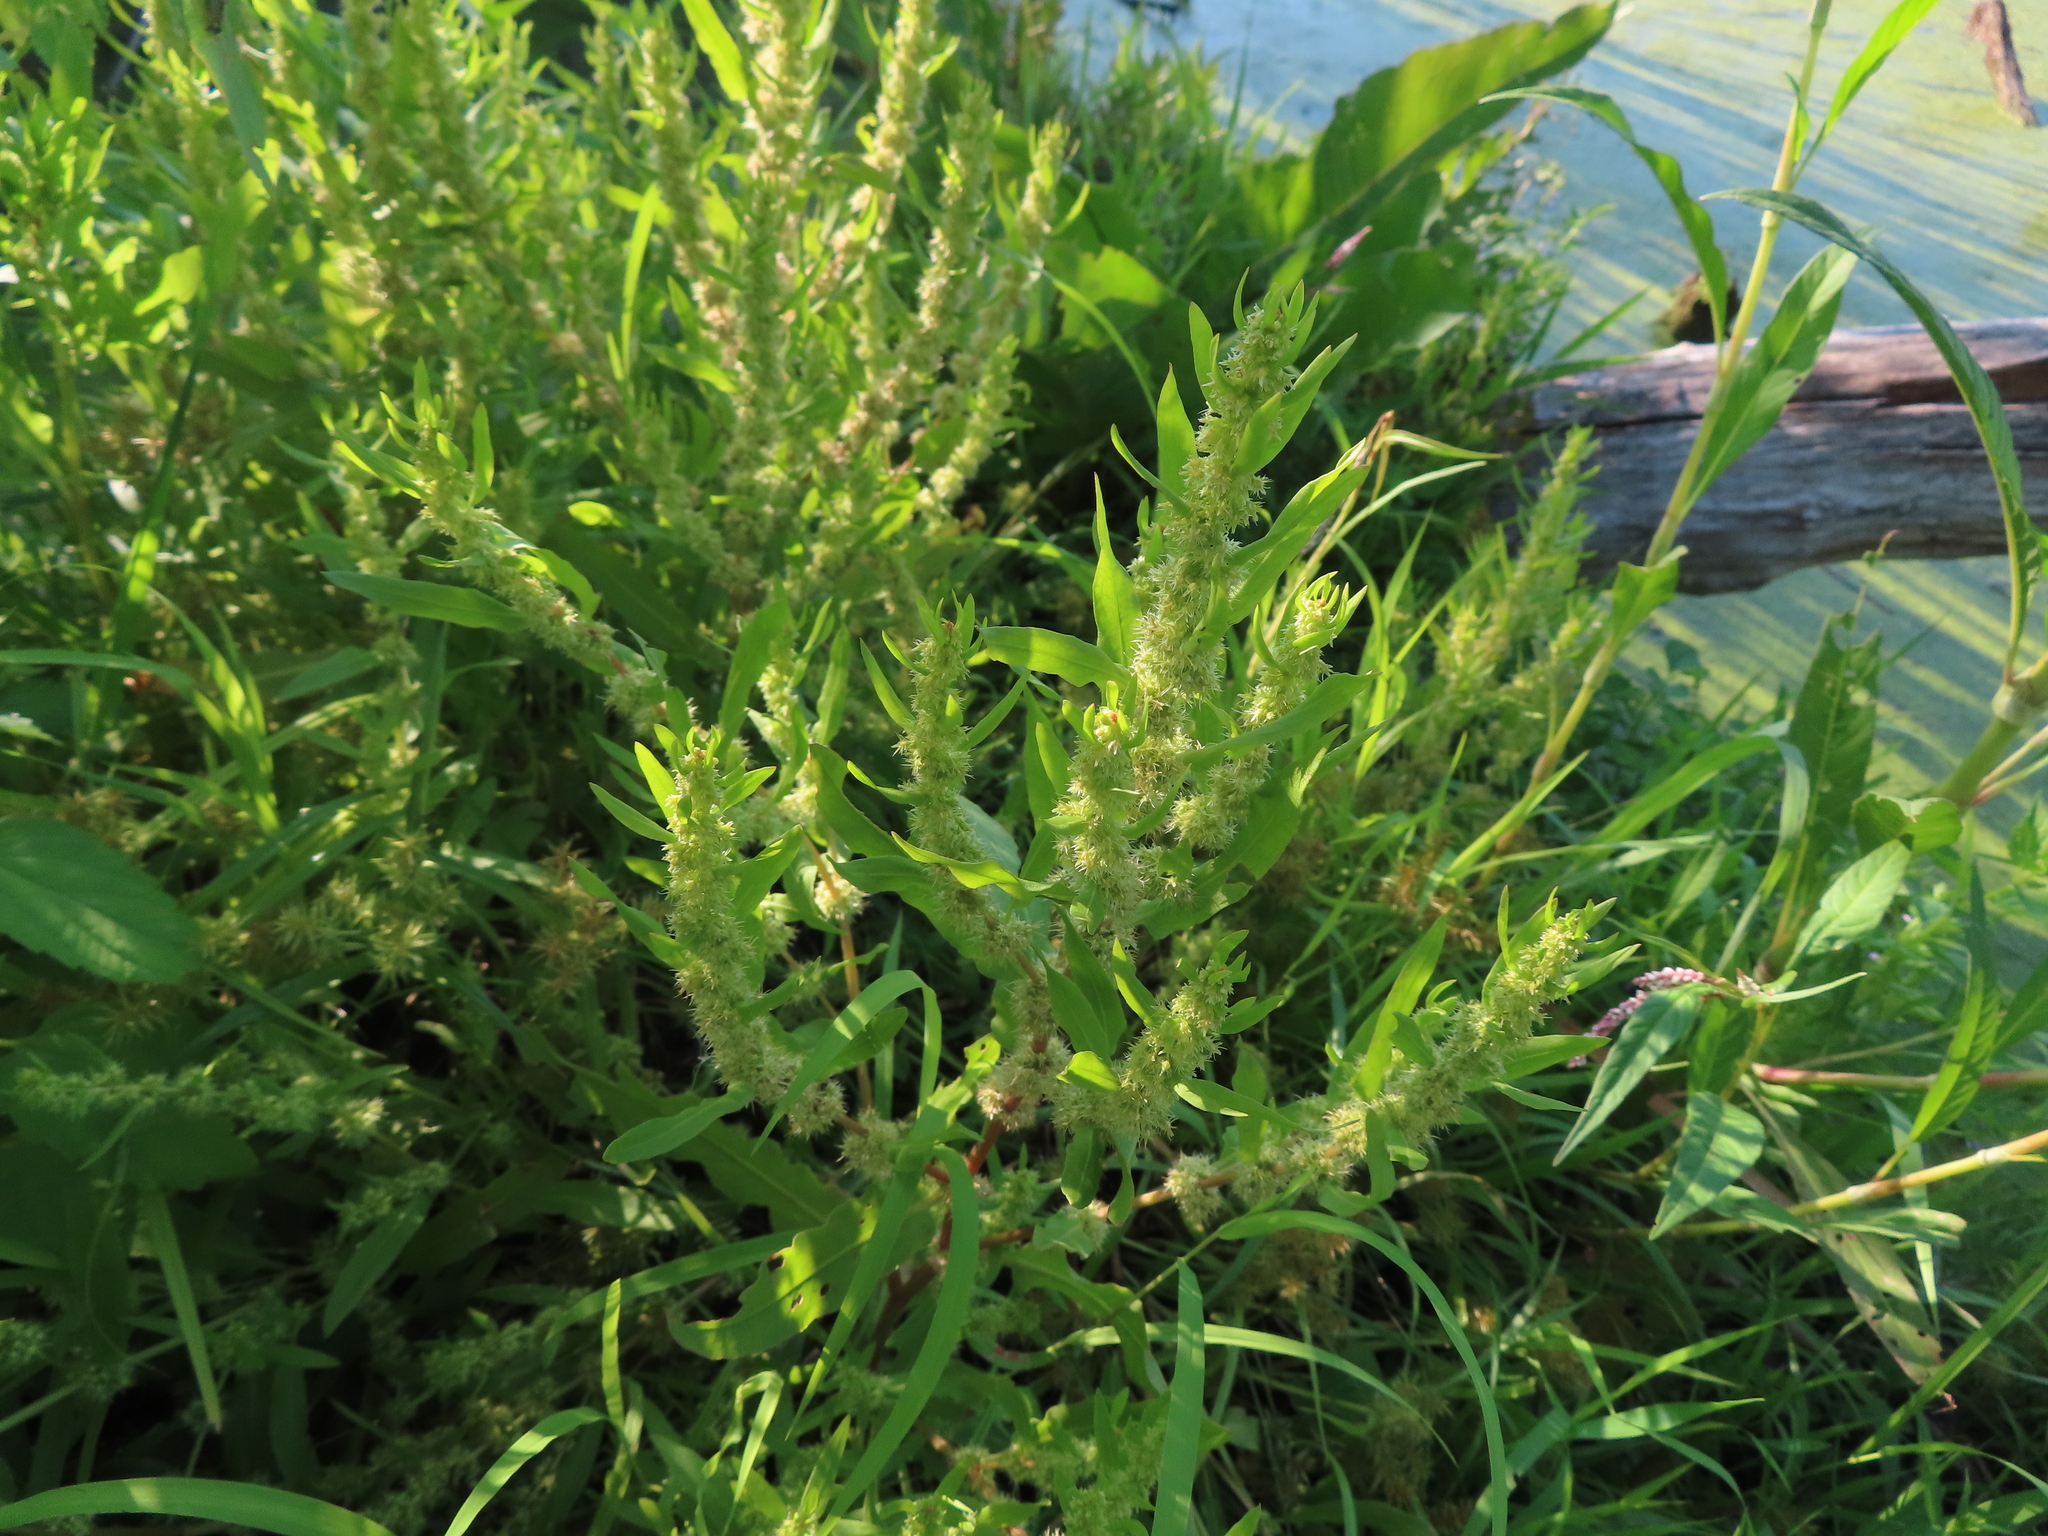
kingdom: Plantae
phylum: Tracheophyta
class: Magnoliopsida
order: Caryophyllales
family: Polygonaceae
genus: Rumex
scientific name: Rumex fueginus
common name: American golden dock
